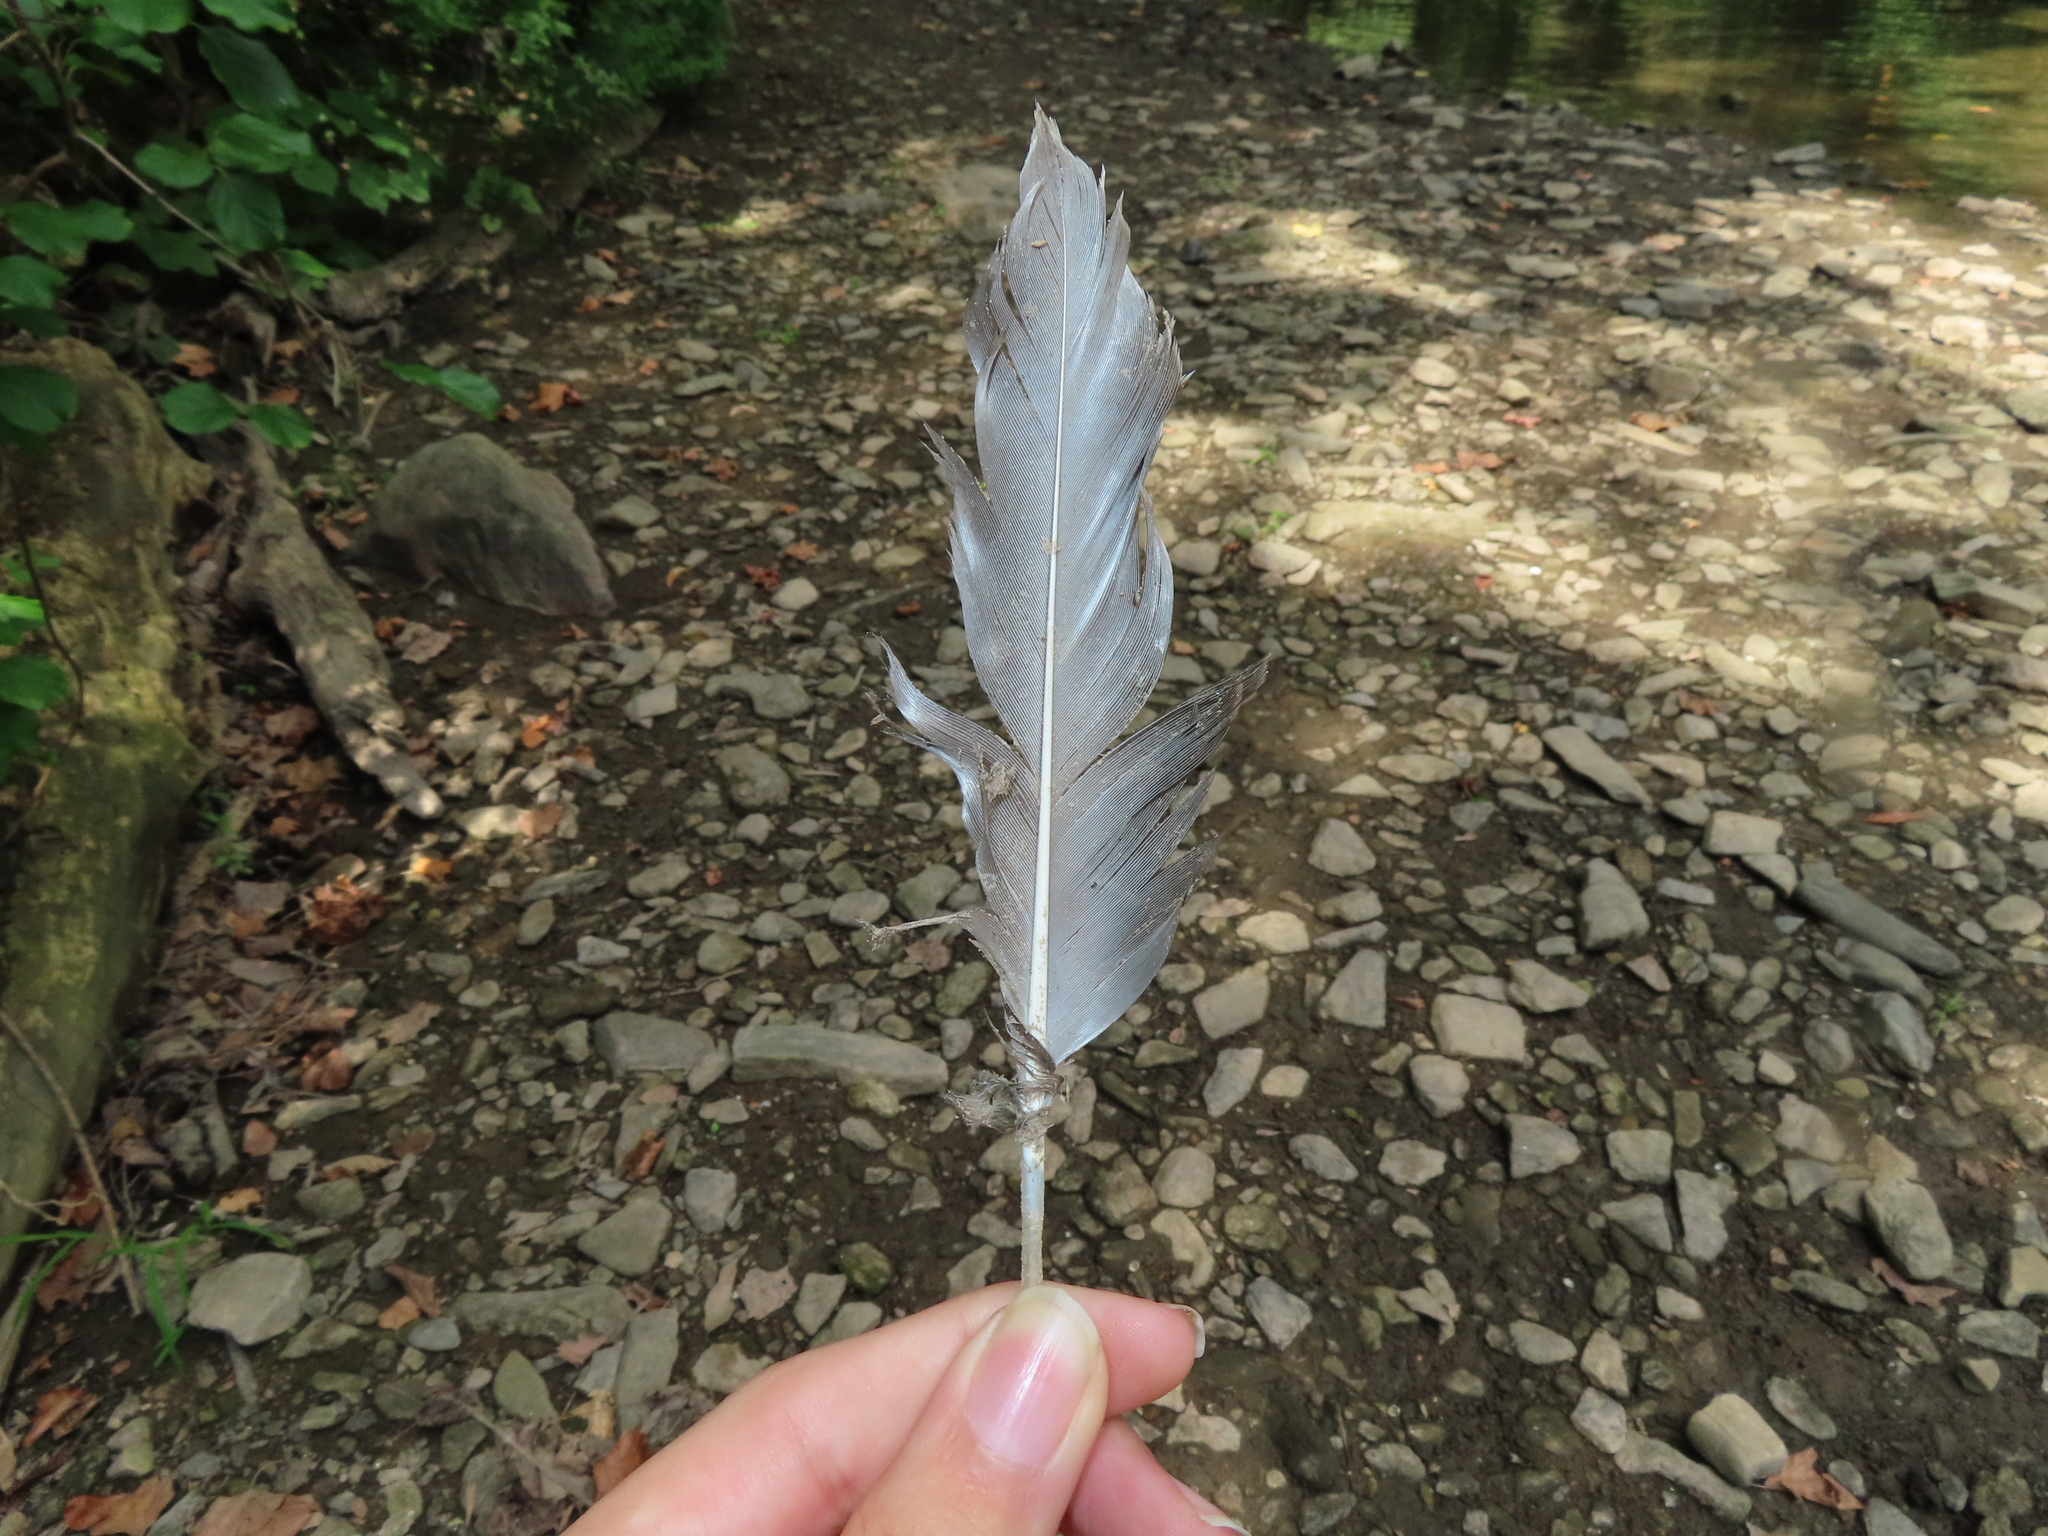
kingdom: Animalia
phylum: Chordata
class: Aves
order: Anseriformes
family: Anatidae
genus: Anas
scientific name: Anas platyrhynchos
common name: Mallard
